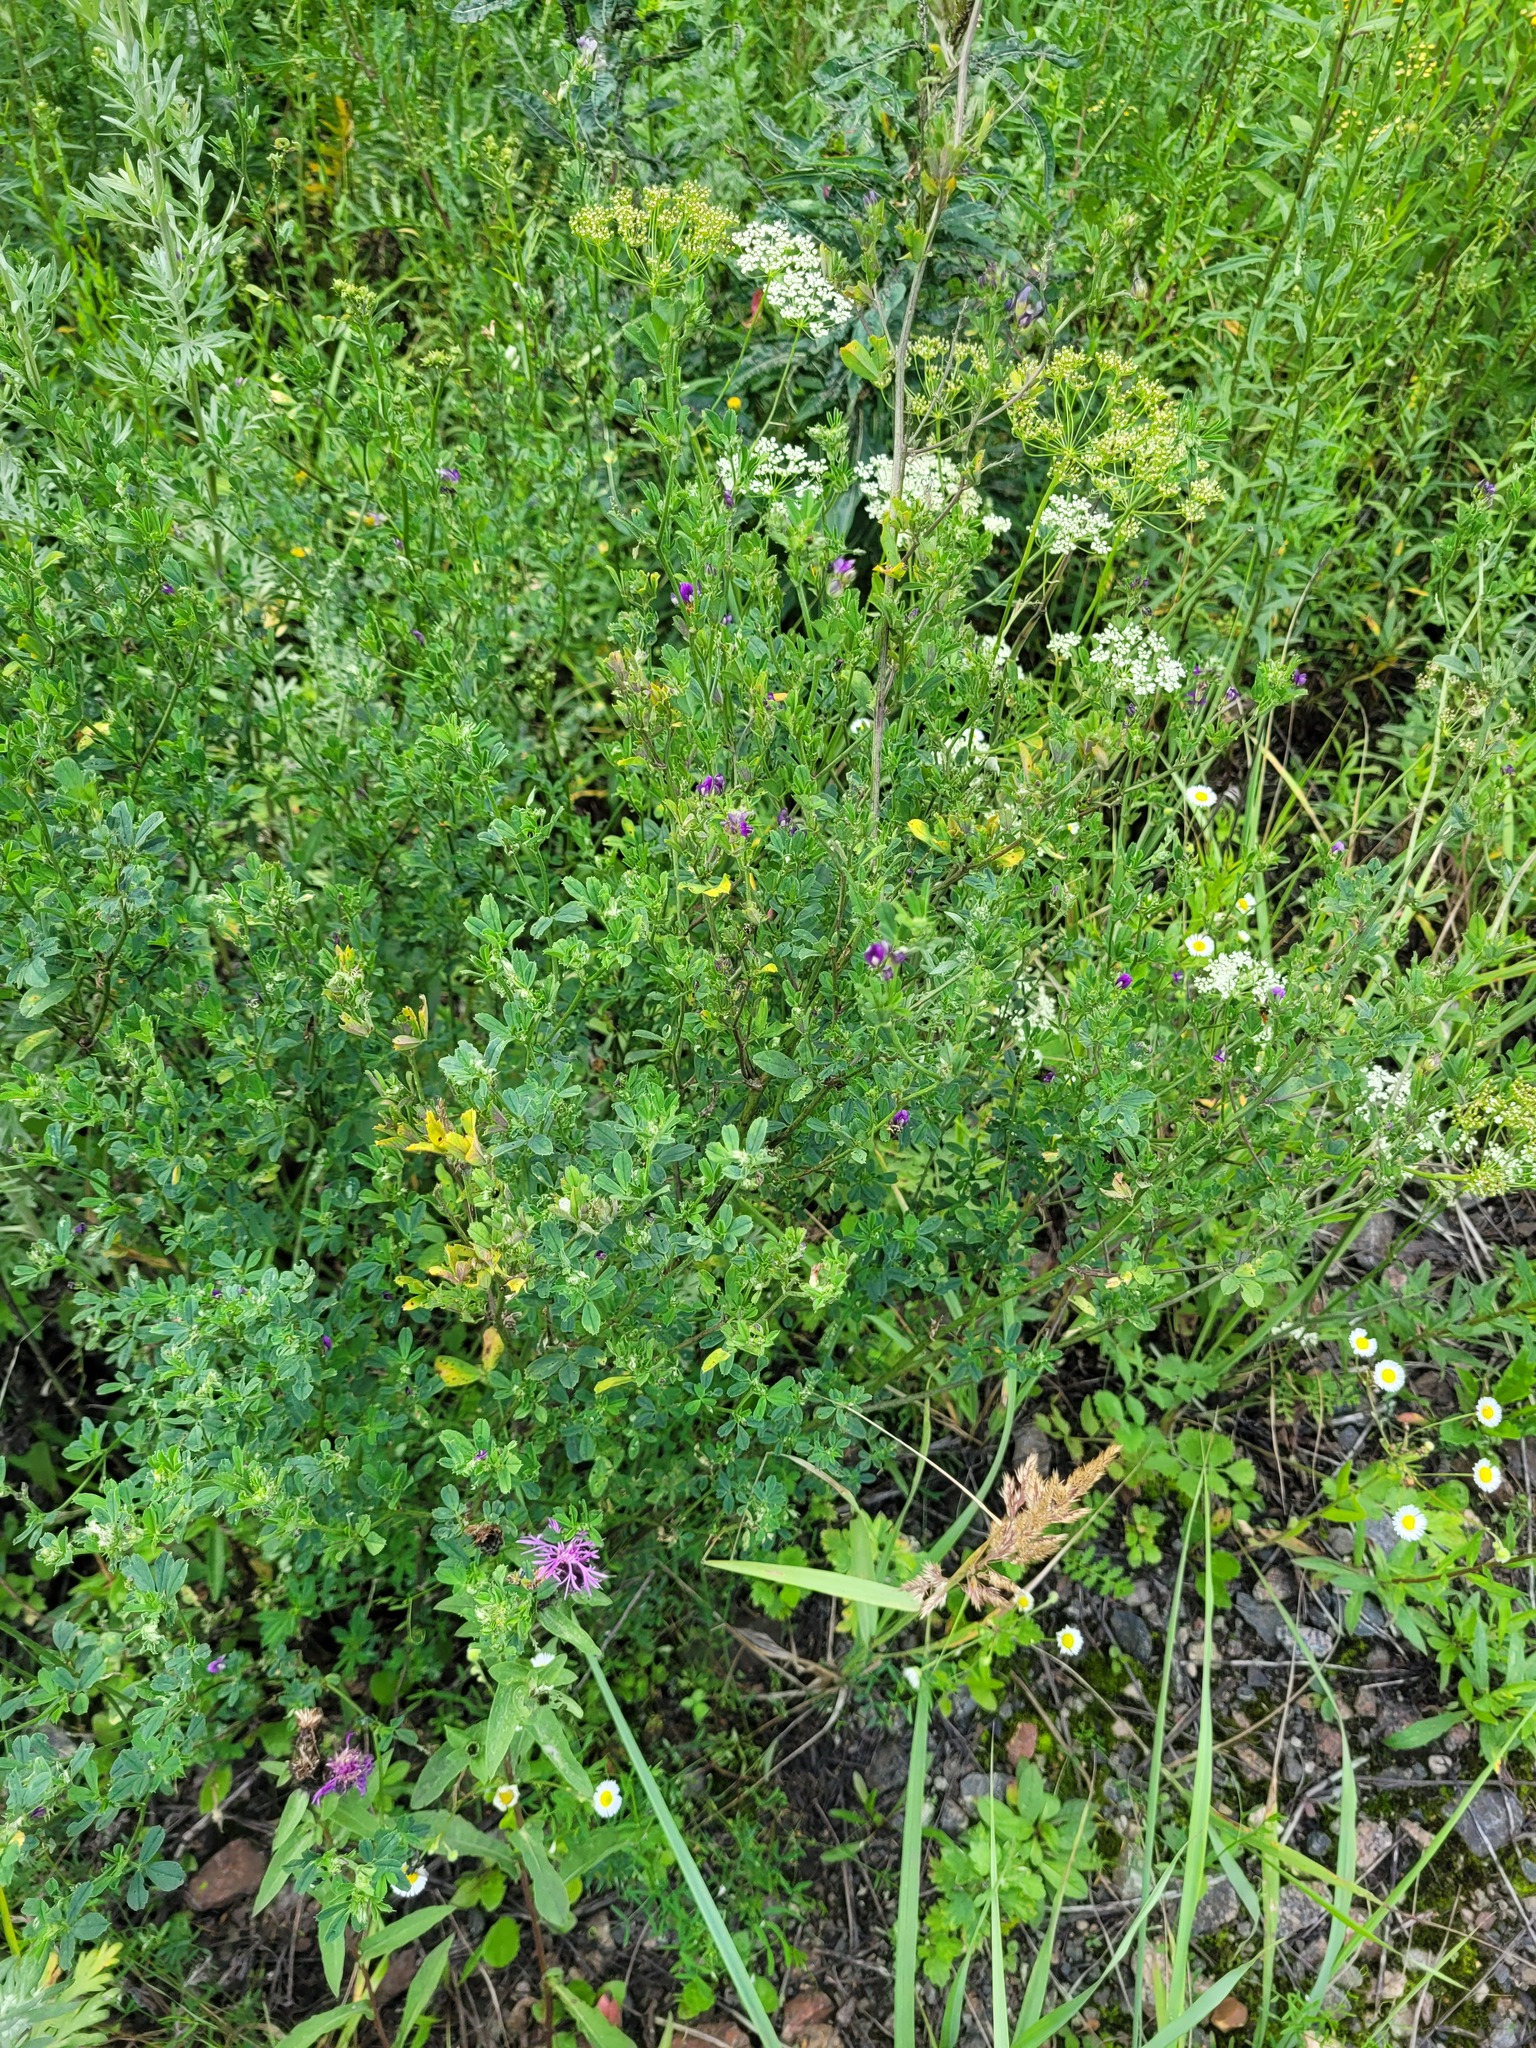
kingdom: Plantae
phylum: Tracheophyta
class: Magnoliopsida
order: Fabales
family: Fabaceae
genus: Medicago
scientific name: Medicago sativa
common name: Alfalfa
